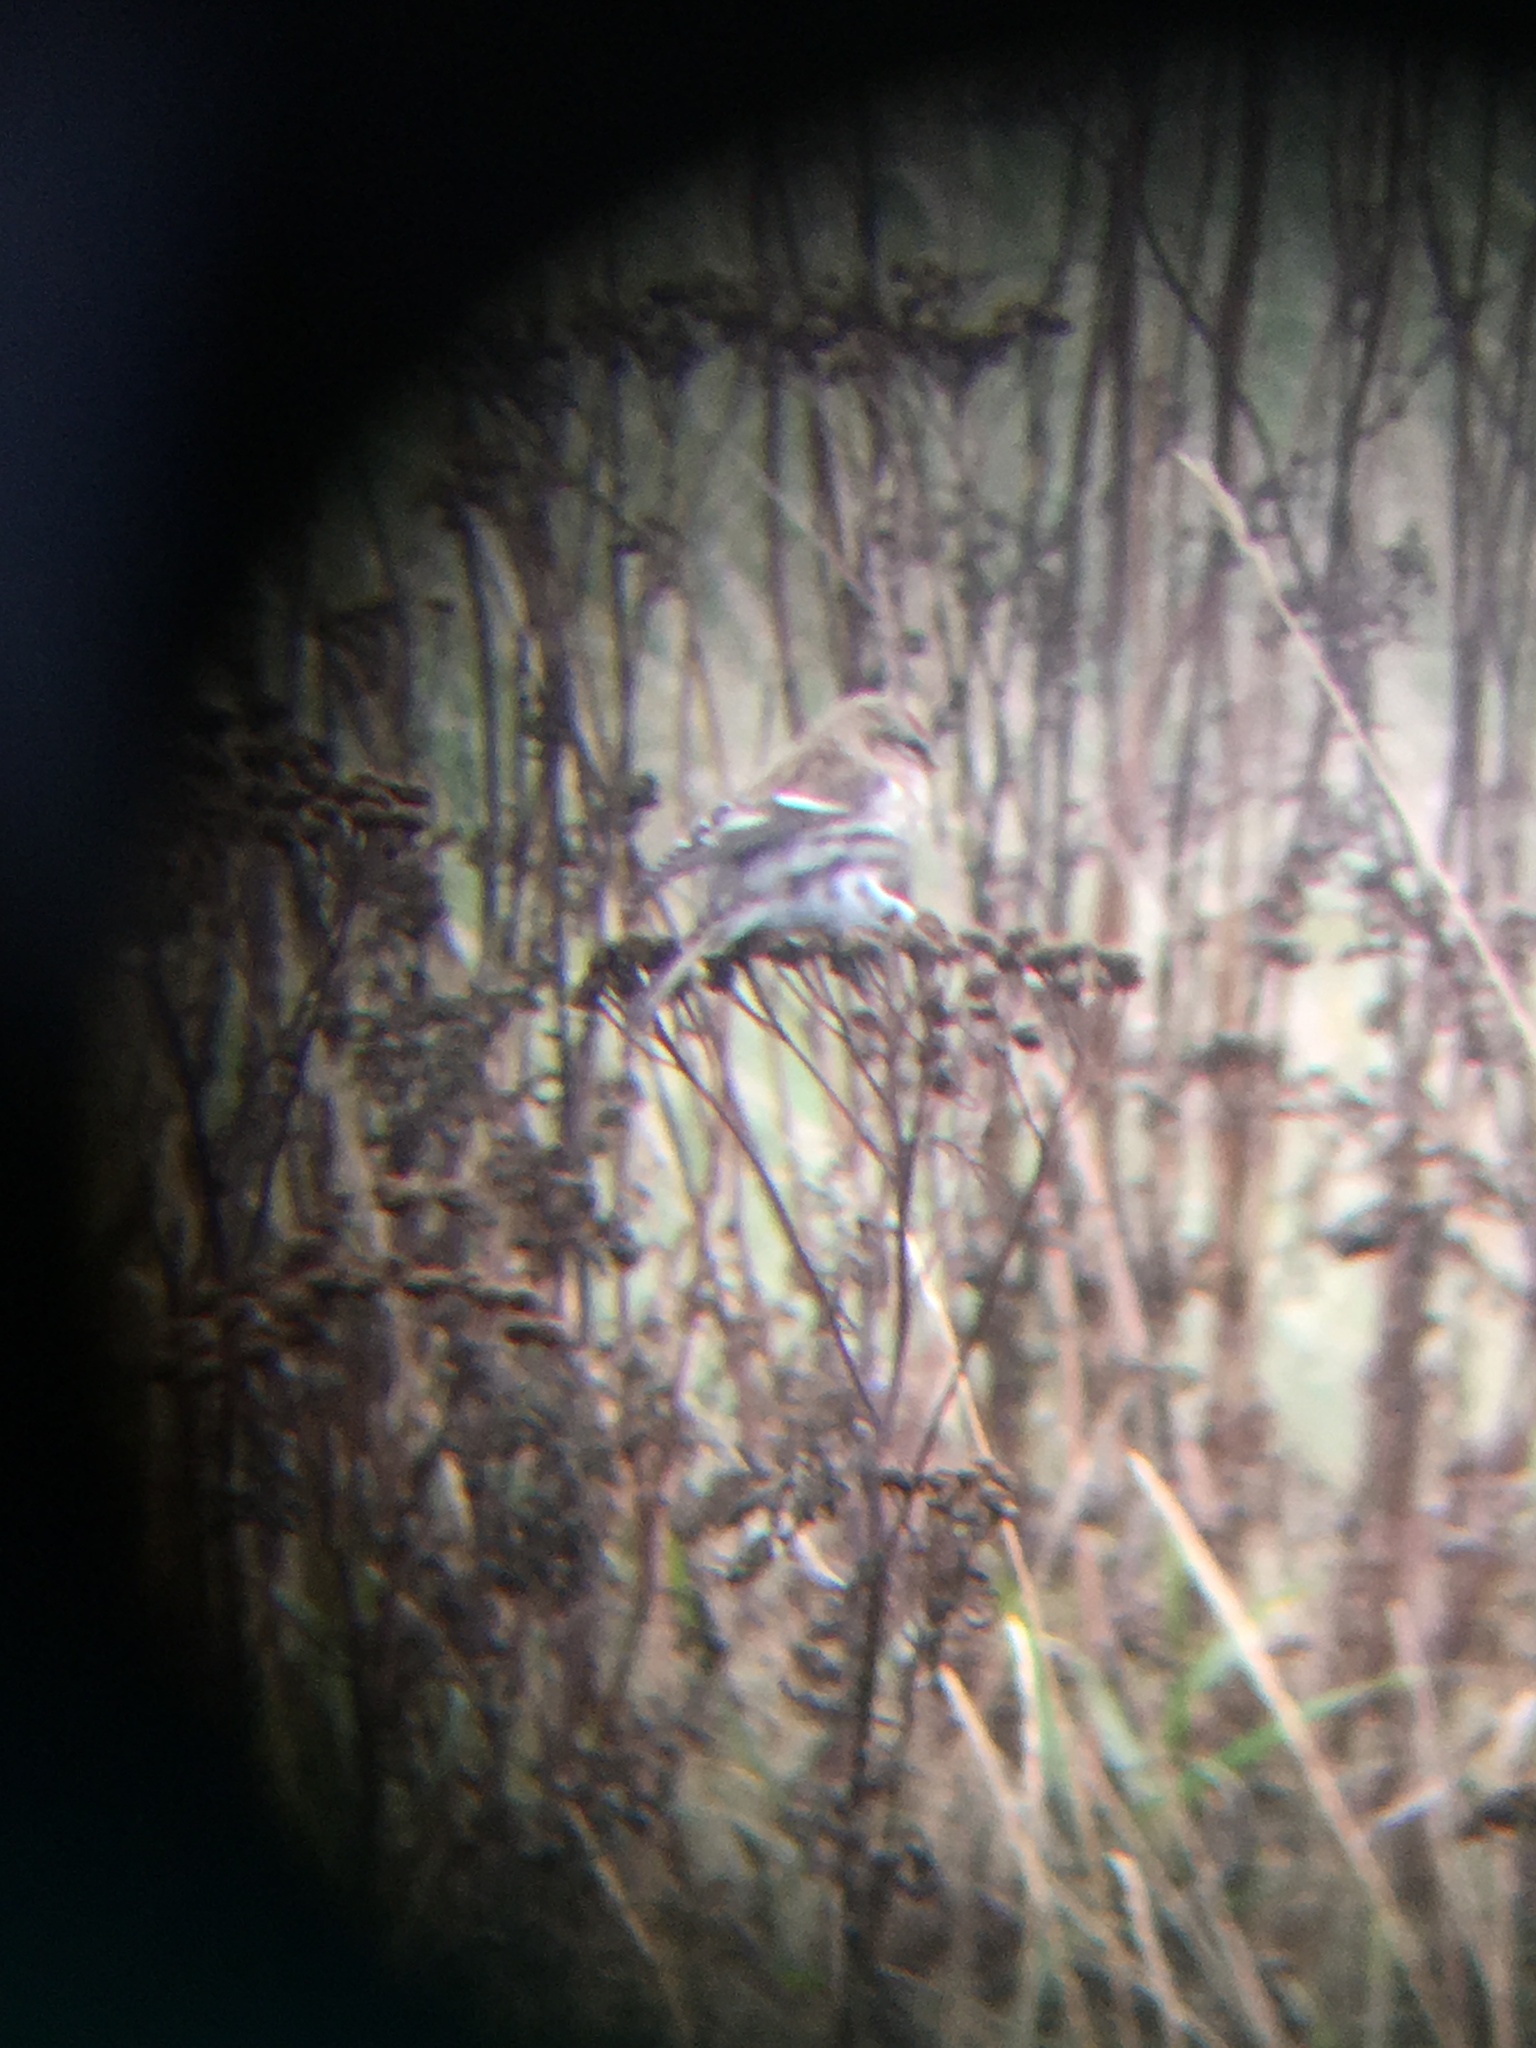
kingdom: Animalia
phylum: Chordata
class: Aves
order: Passeriformes
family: Fringillidae
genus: Acanthis
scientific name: Acanthis flammea
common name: Common redpoll
